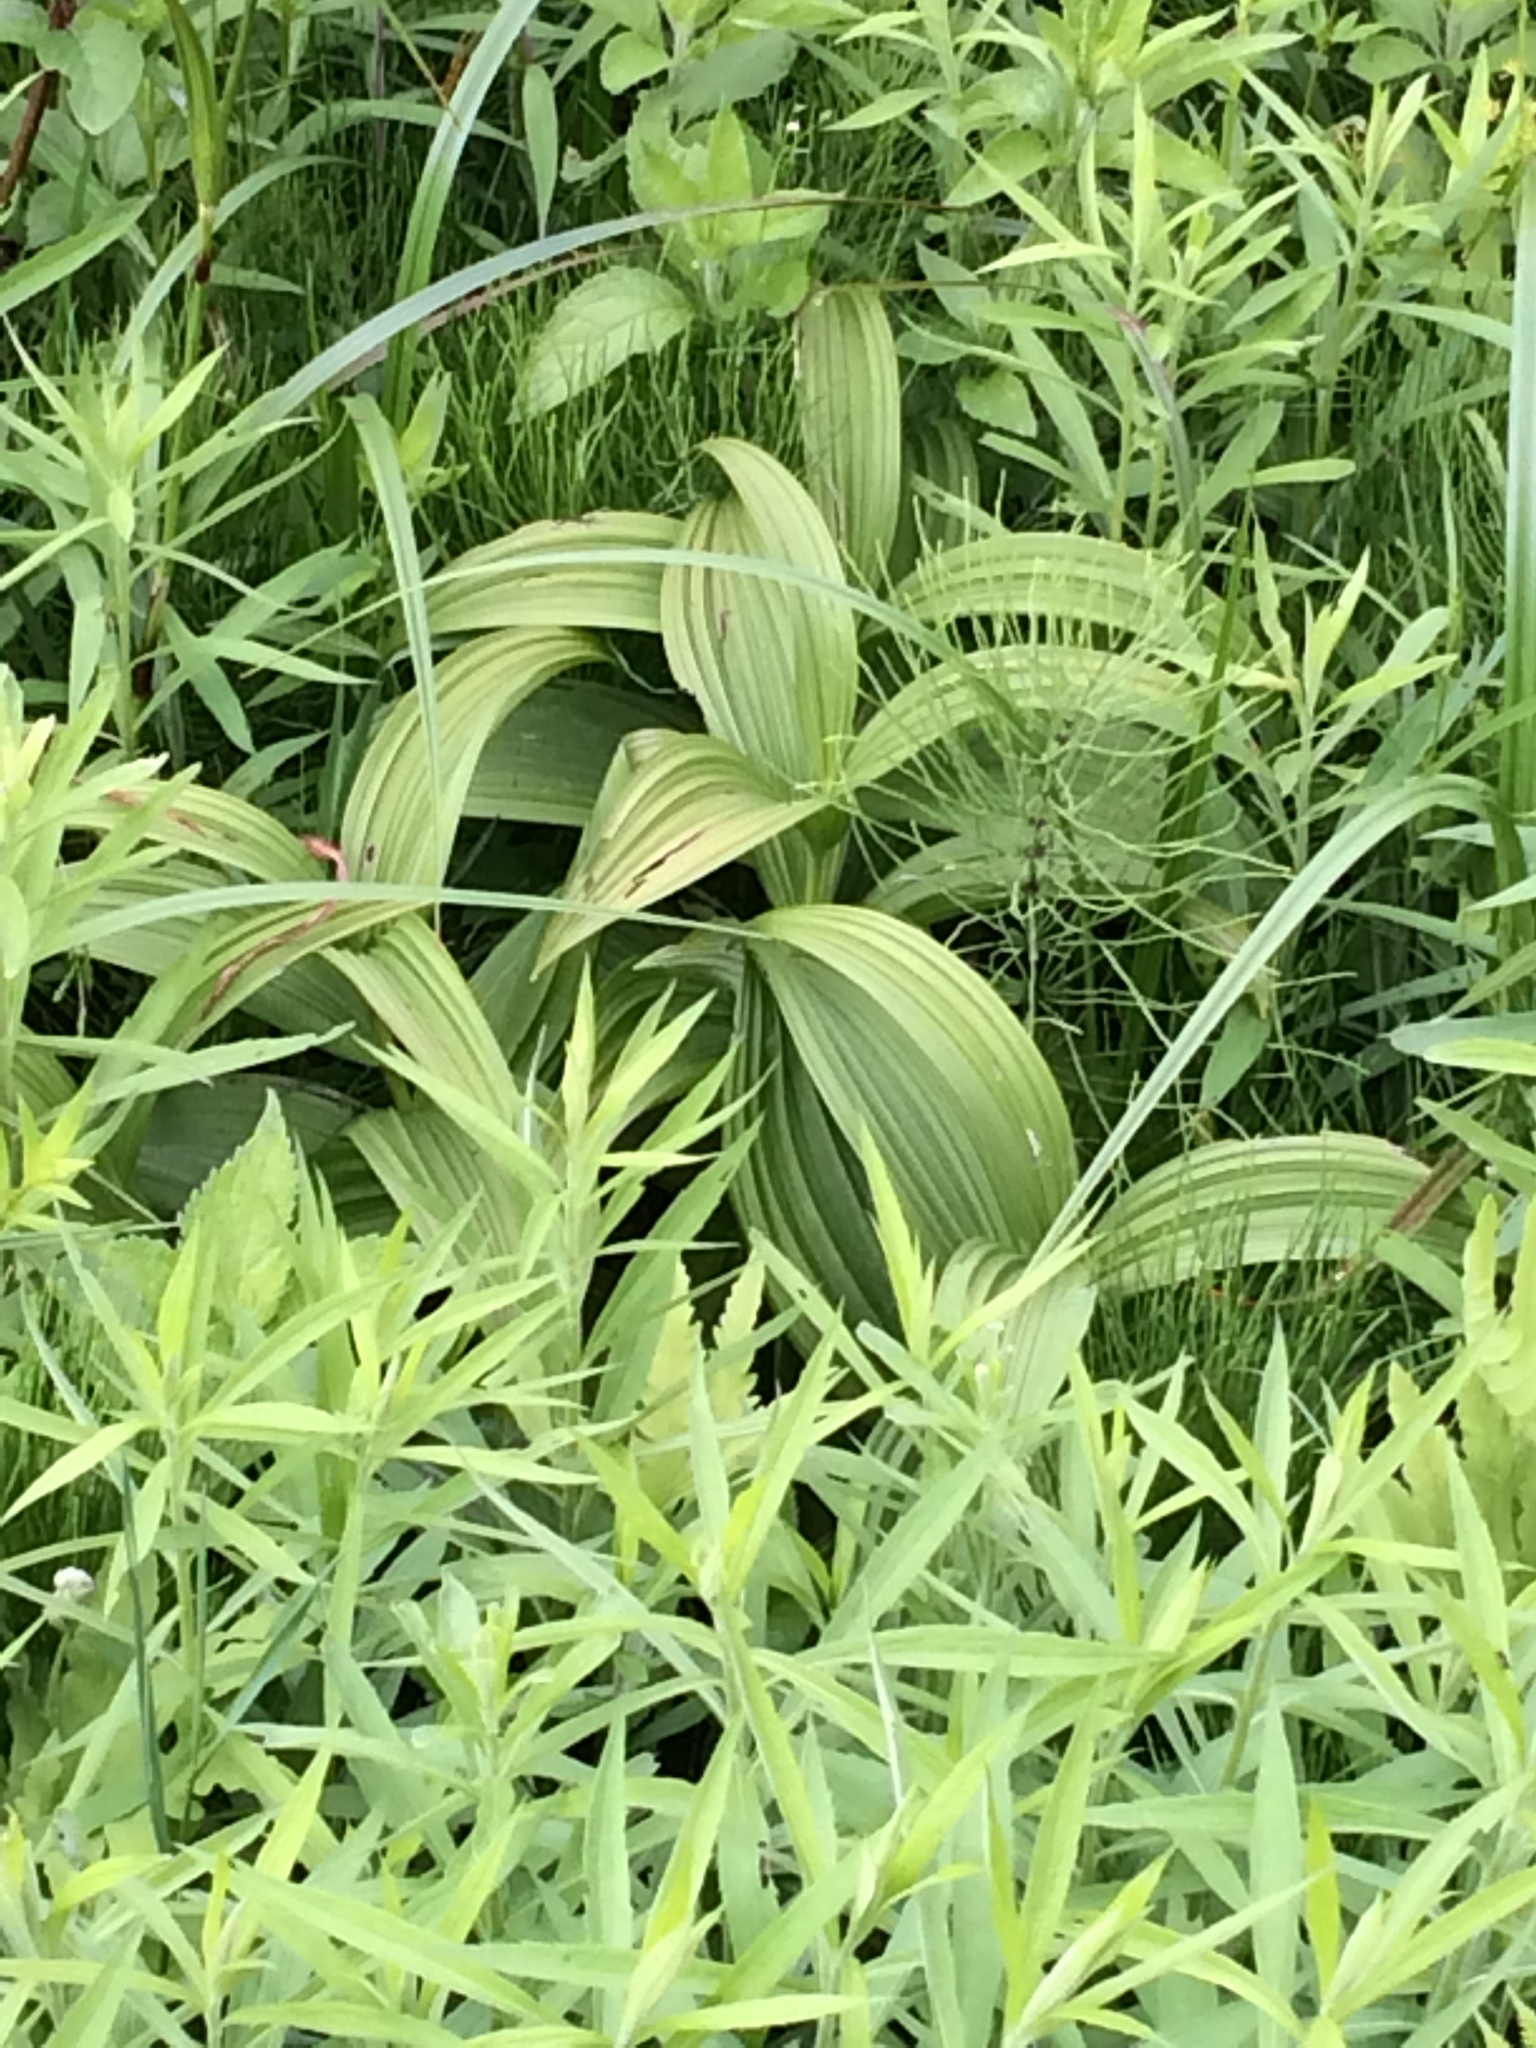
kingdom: Plantae
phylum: Tracheophyta
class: Liliopsida
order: Liliales
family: Melanthiaceae
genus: Veratrum
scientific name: Veratrum viride
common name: American false hellebore
